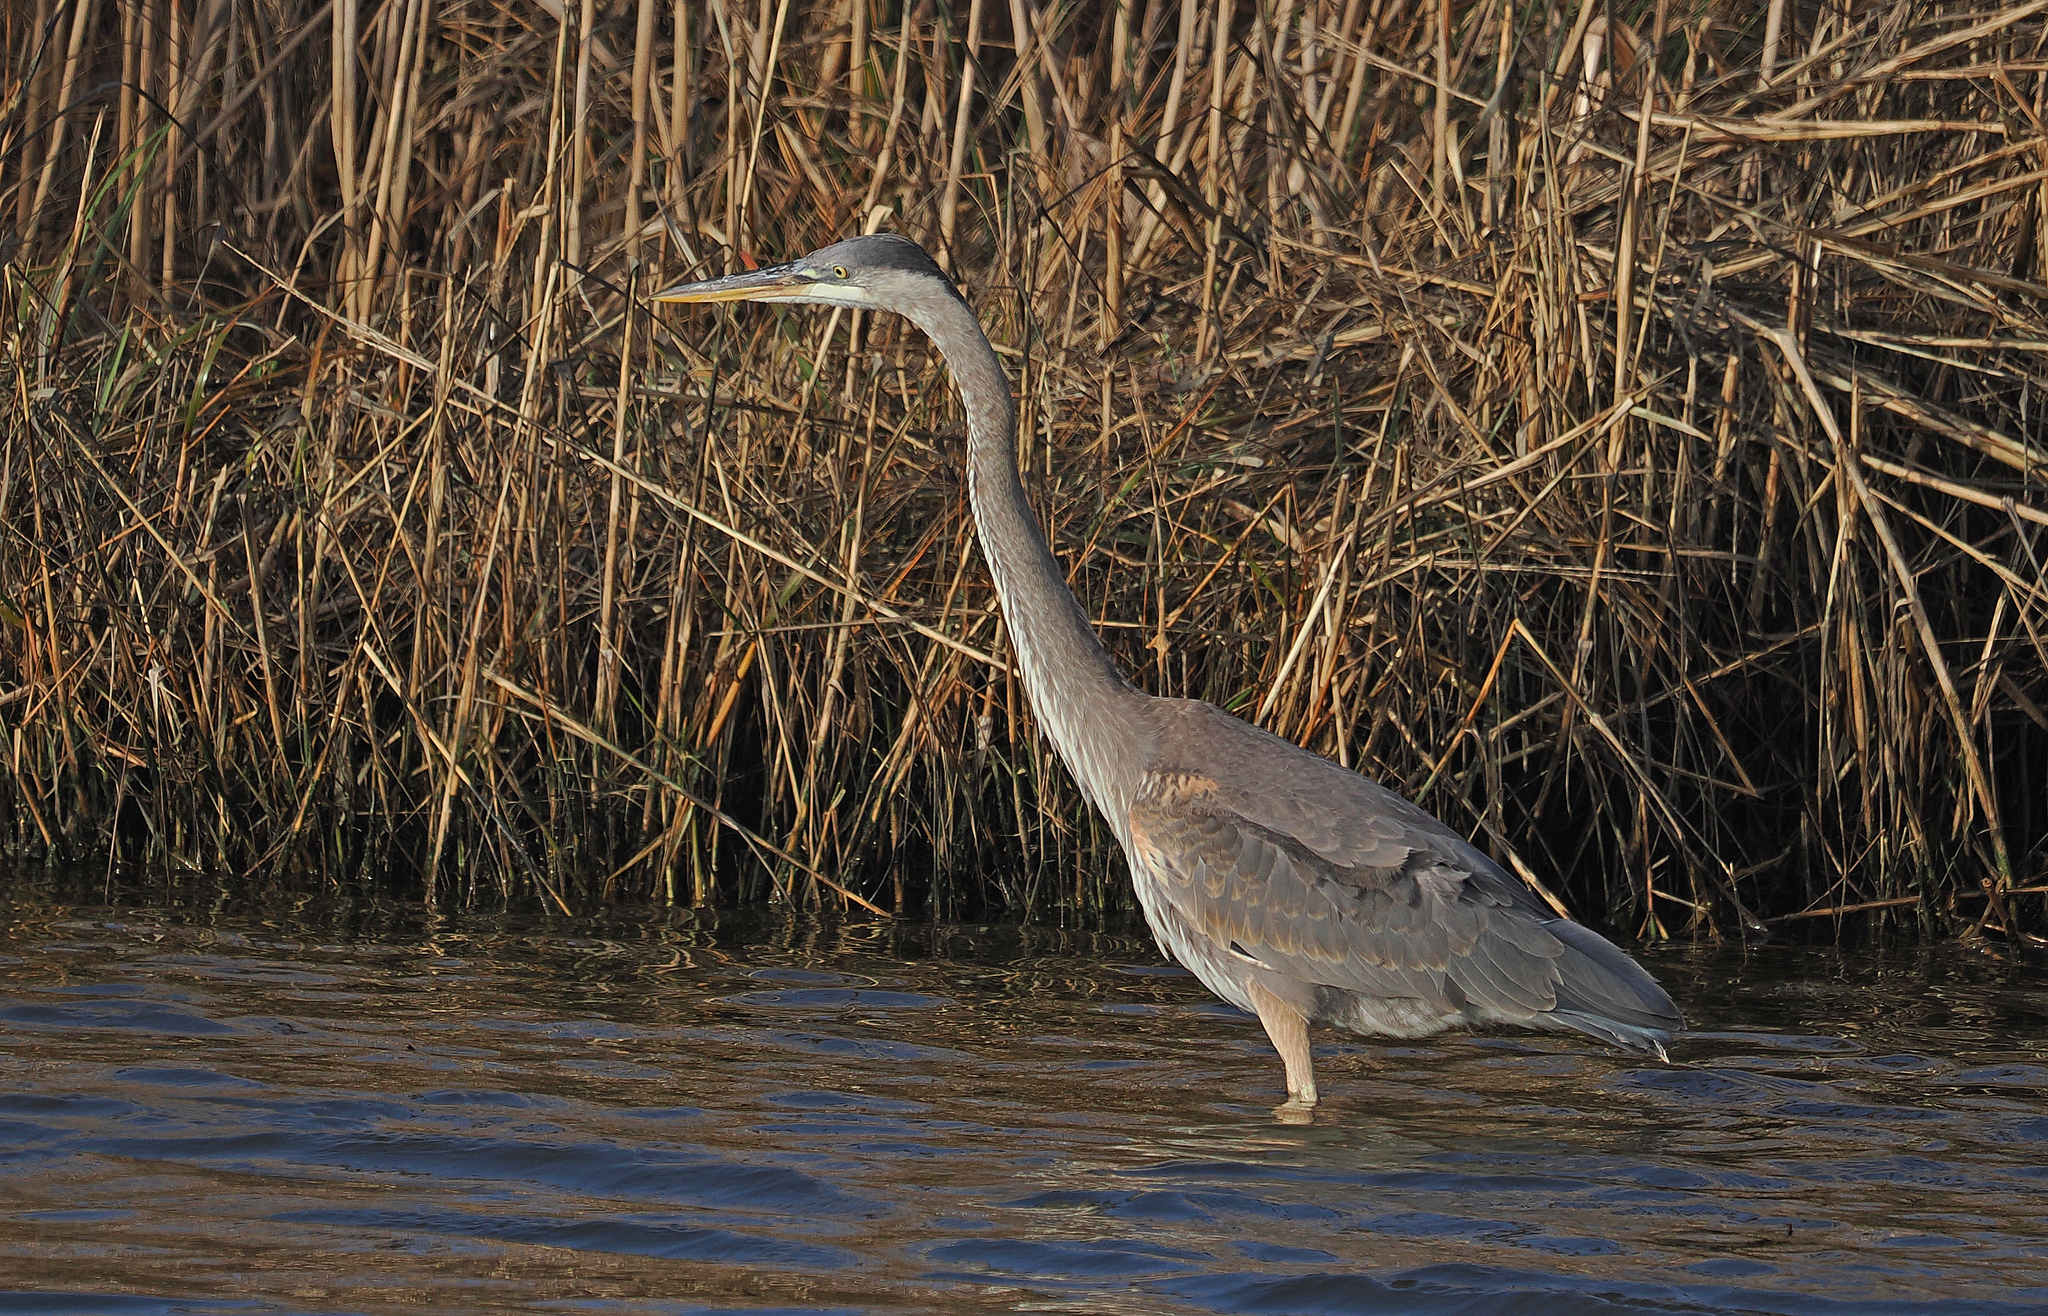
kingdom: Animalia
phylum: Chordata
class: Aves
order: Pelecaniformes
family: Ardeidae
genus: Ardea
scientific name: Ardea herodias
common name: Great blue heron
